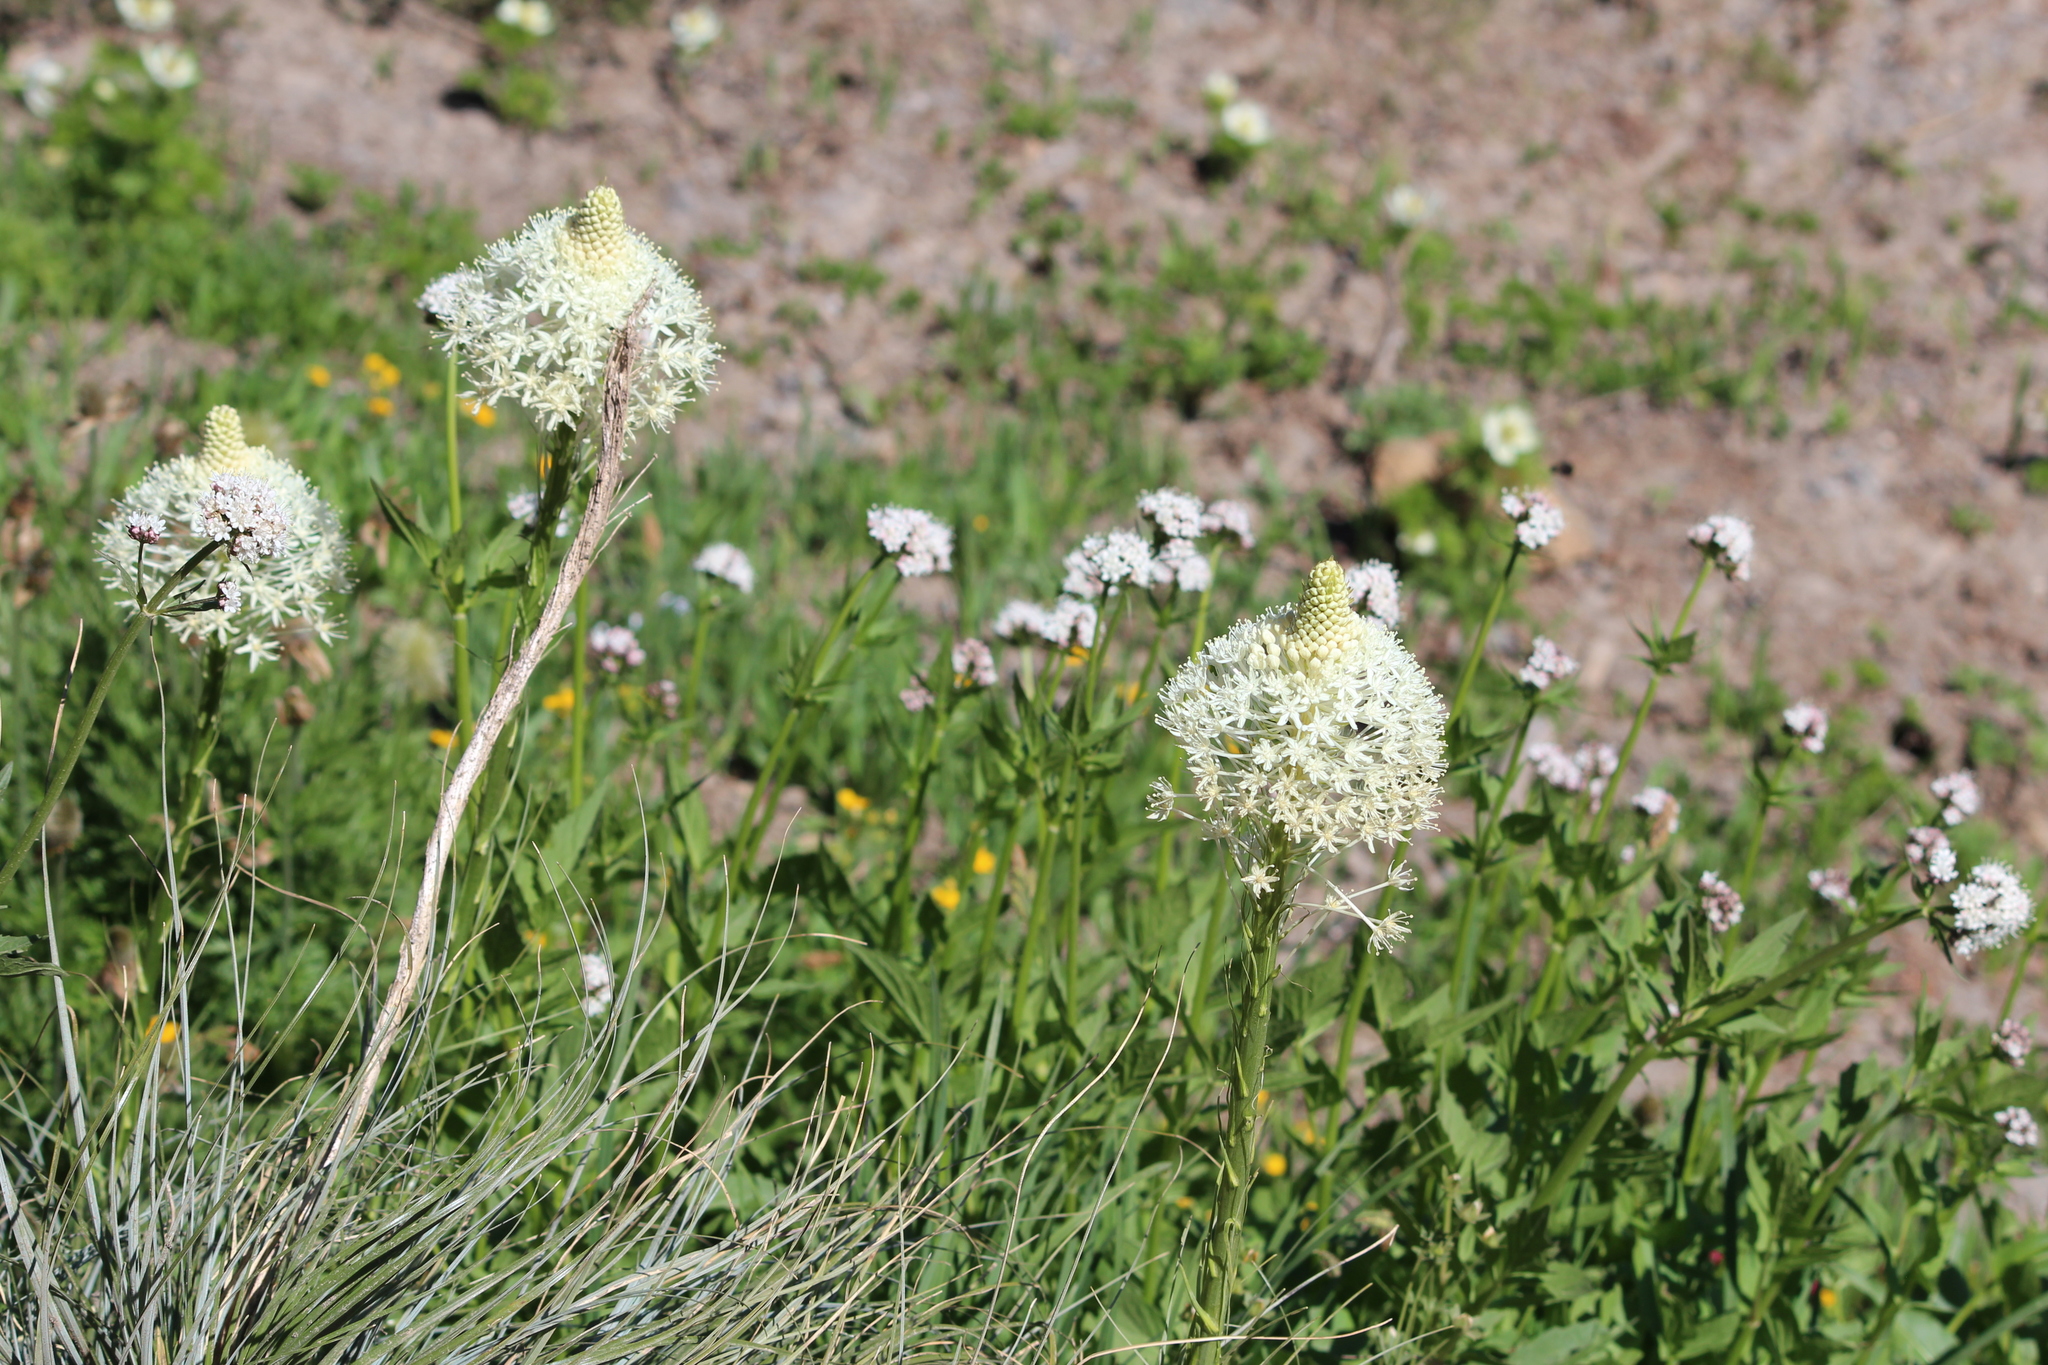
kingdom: Plantae
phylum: Tracheophyta
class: Liliopsida
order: Liliales
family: Melanthiaceae
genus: Xerophyllum
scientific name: Xerophyllum tenax
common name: Bear-grass
